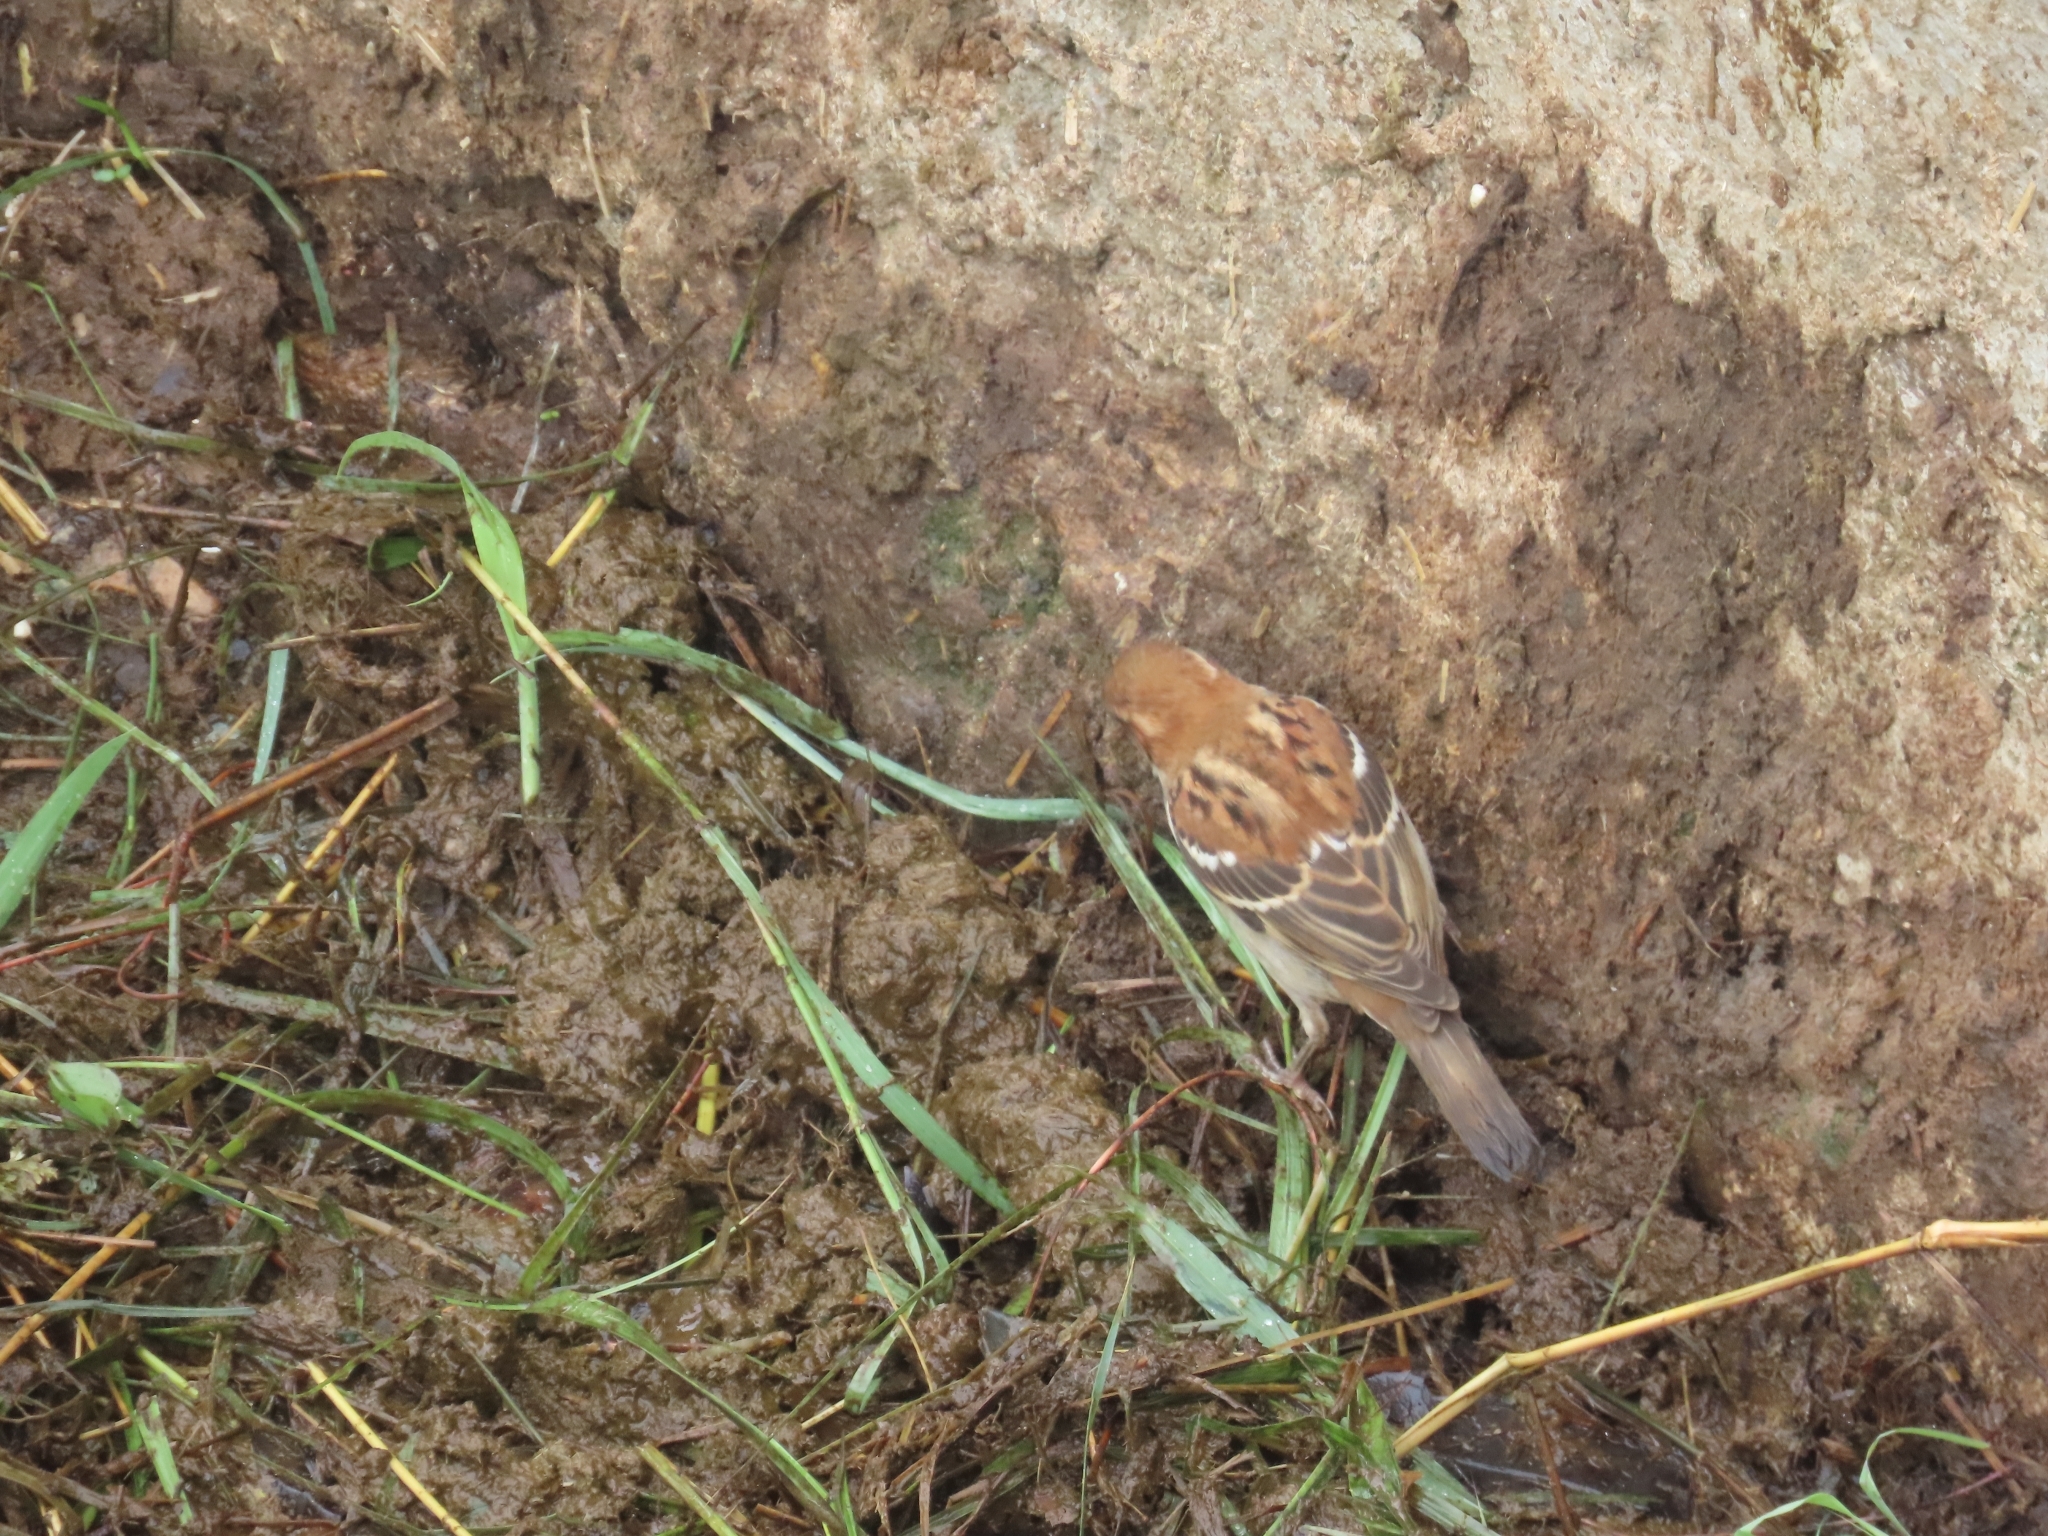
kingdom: Animalia
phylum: Chordata
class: Aves
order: Passeriformes
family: Passeridae
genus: Passer
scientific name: Passer cinnamomeus
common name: Russet sparrow
